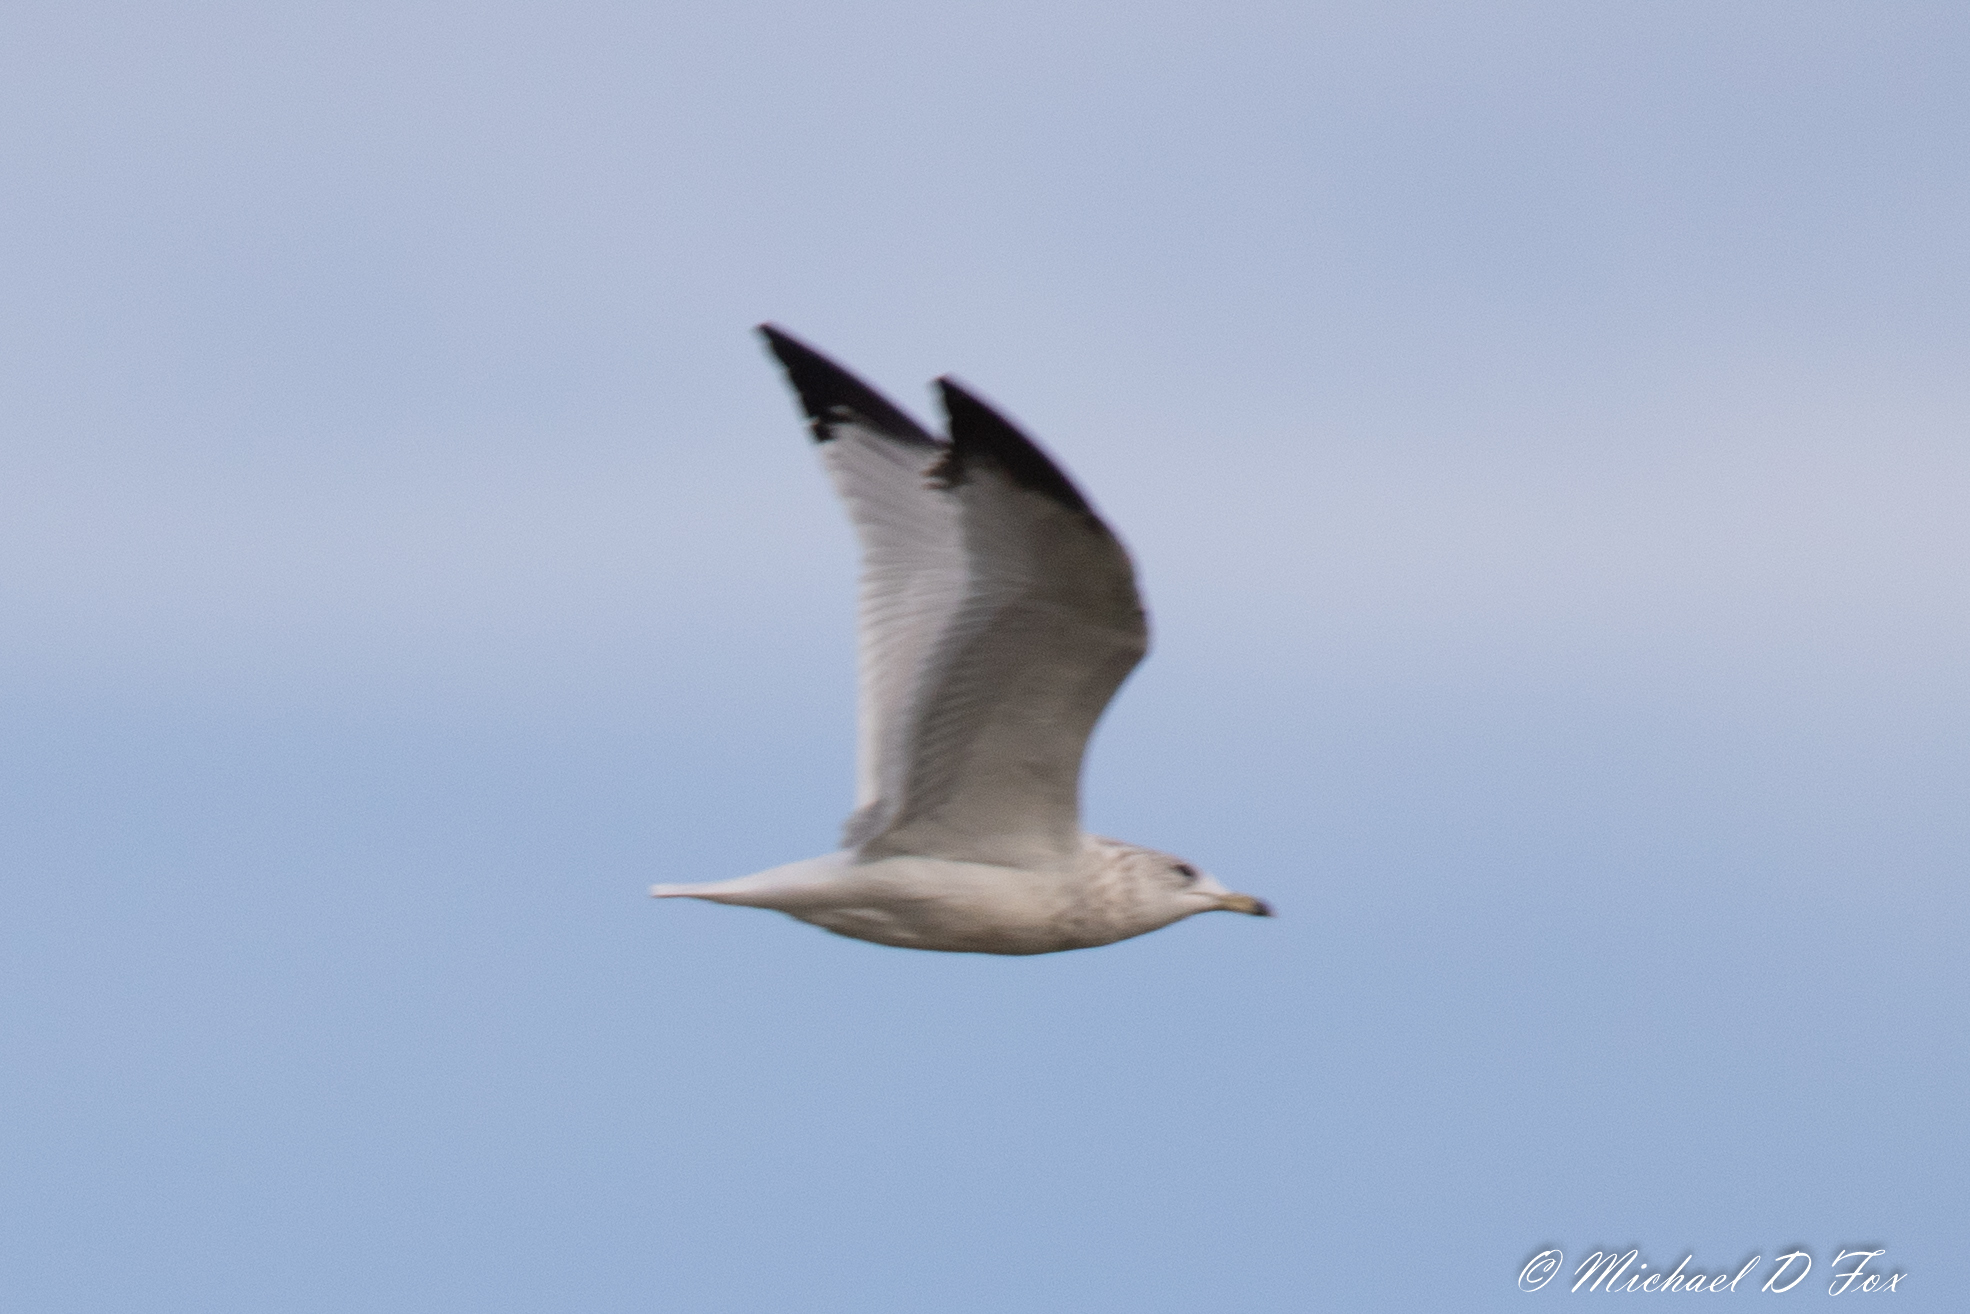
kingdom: Animalia
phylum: Chordata
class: Aves
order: Charadriiformes
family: Laridae
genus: Larus
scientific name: Larus delawarensis
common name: Ring-billed gull
